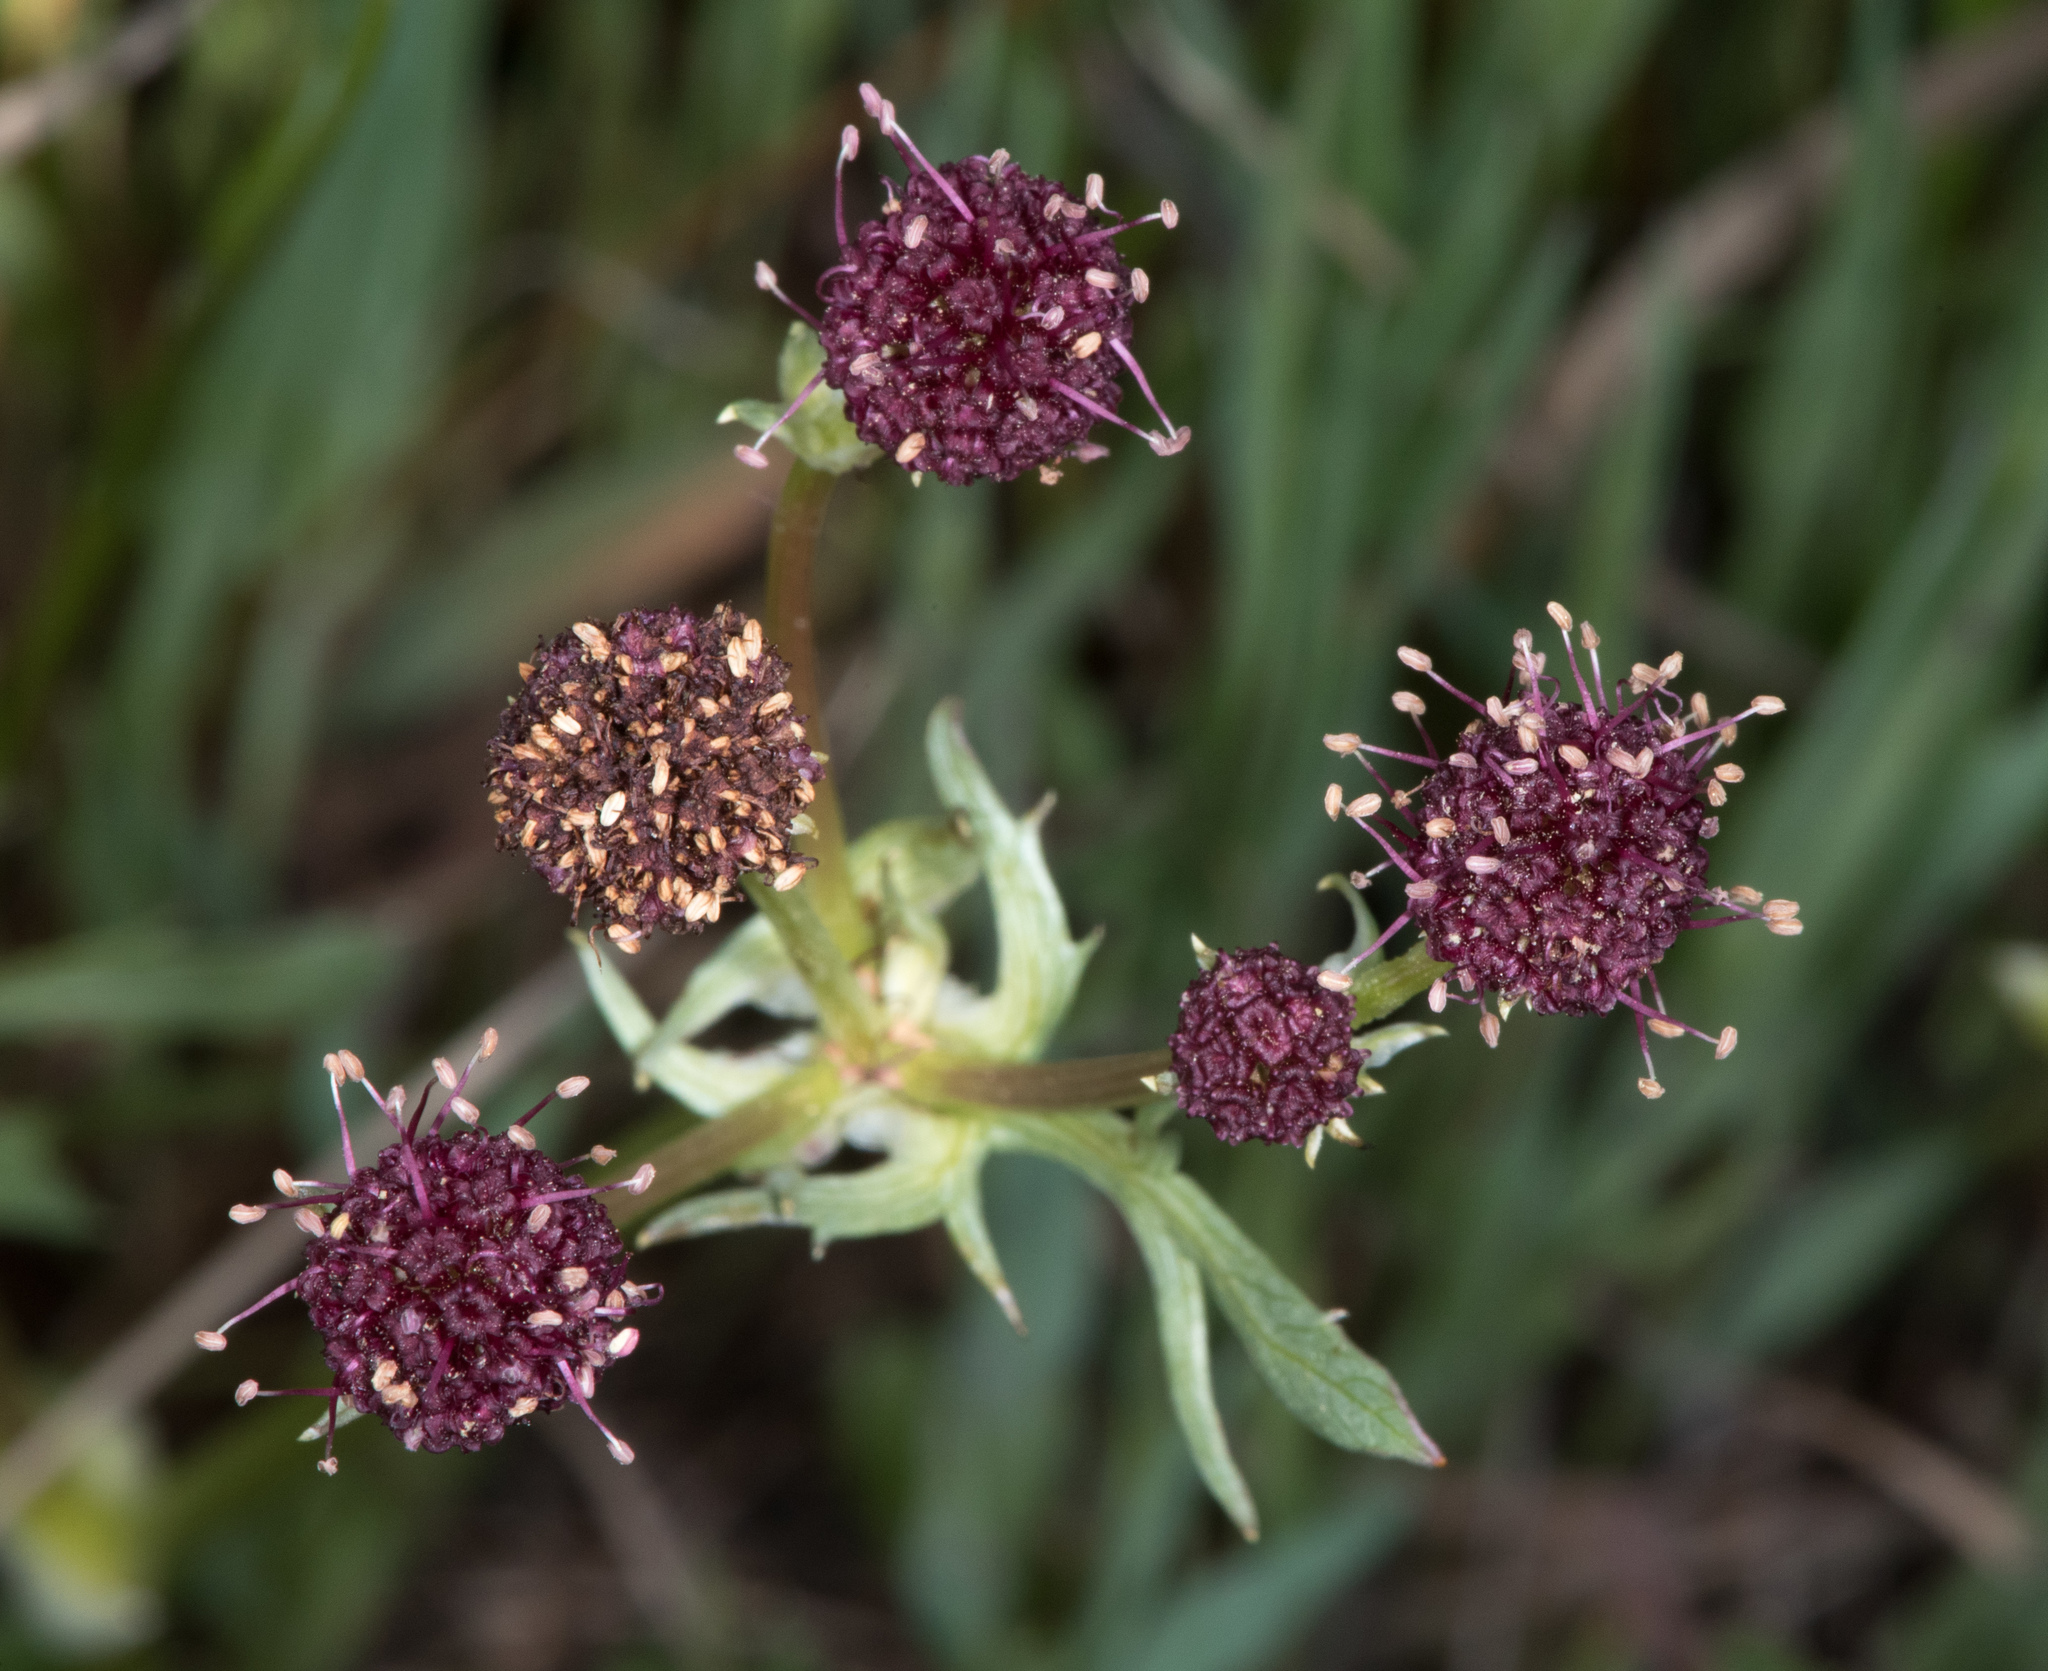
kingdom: Plantae
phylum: Tracheophyta
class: Magnoliopsida
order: Apiales
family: Apiaceae
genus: Sanicula
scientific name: Sanicula bipinnatifida
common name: Shoe-buttons
